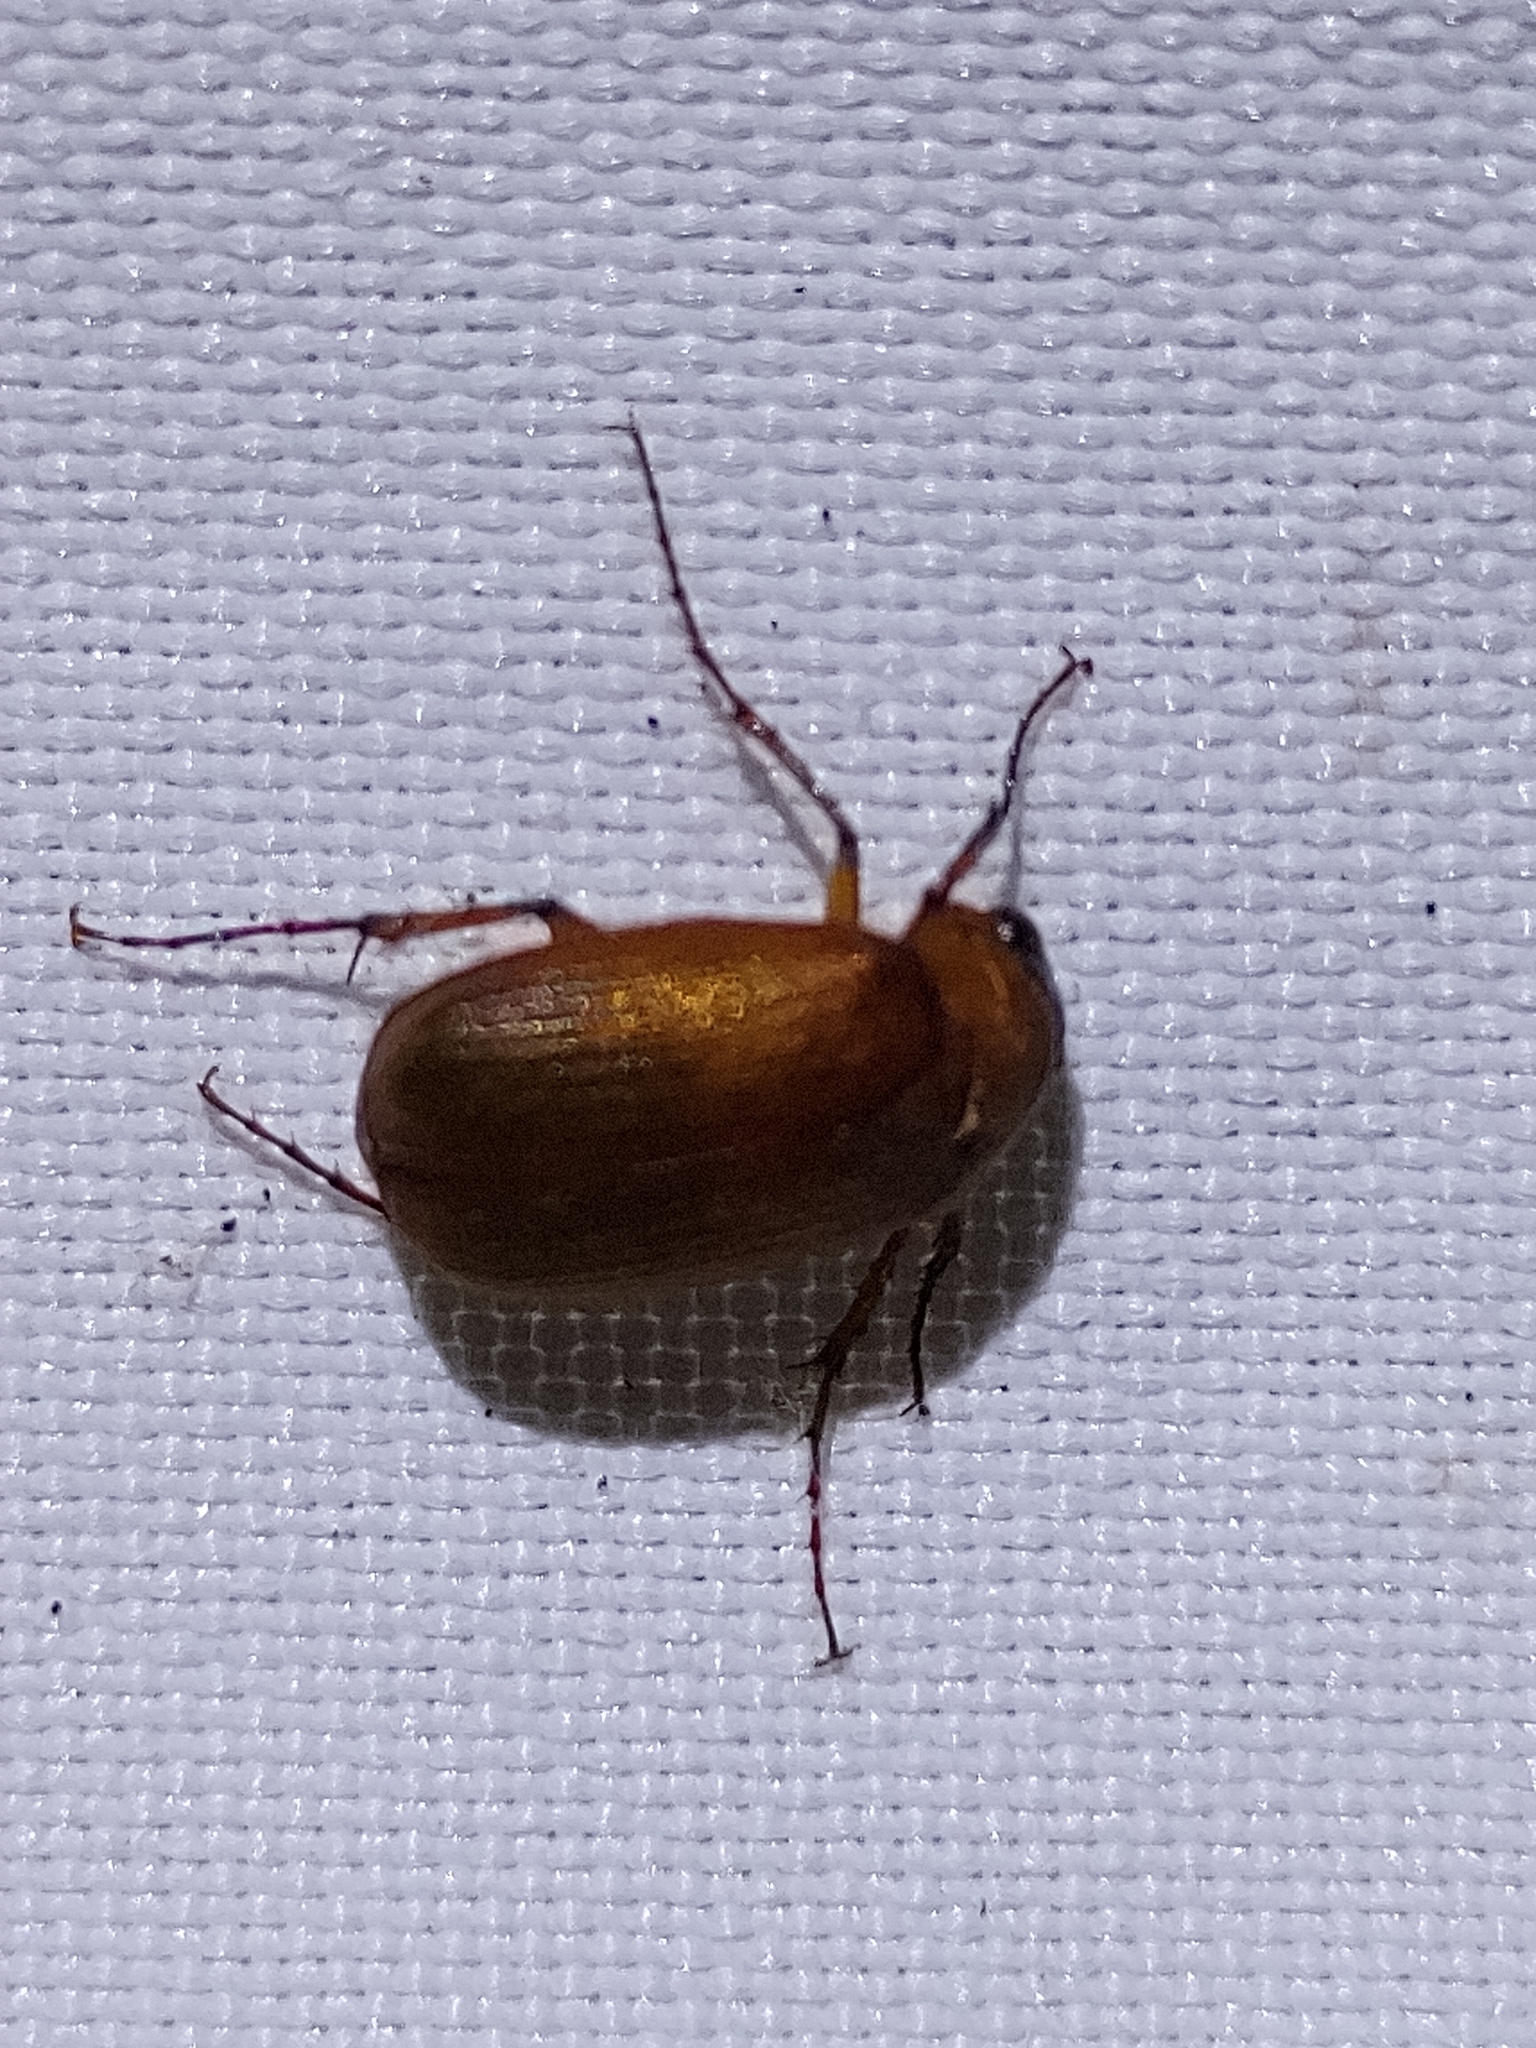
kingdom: Animalia
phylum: Arthropoda
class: Insecta
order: Coleoptera
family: Scarabaeidae
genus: Serica
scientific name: Serica brunnea
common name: Brown chafer
